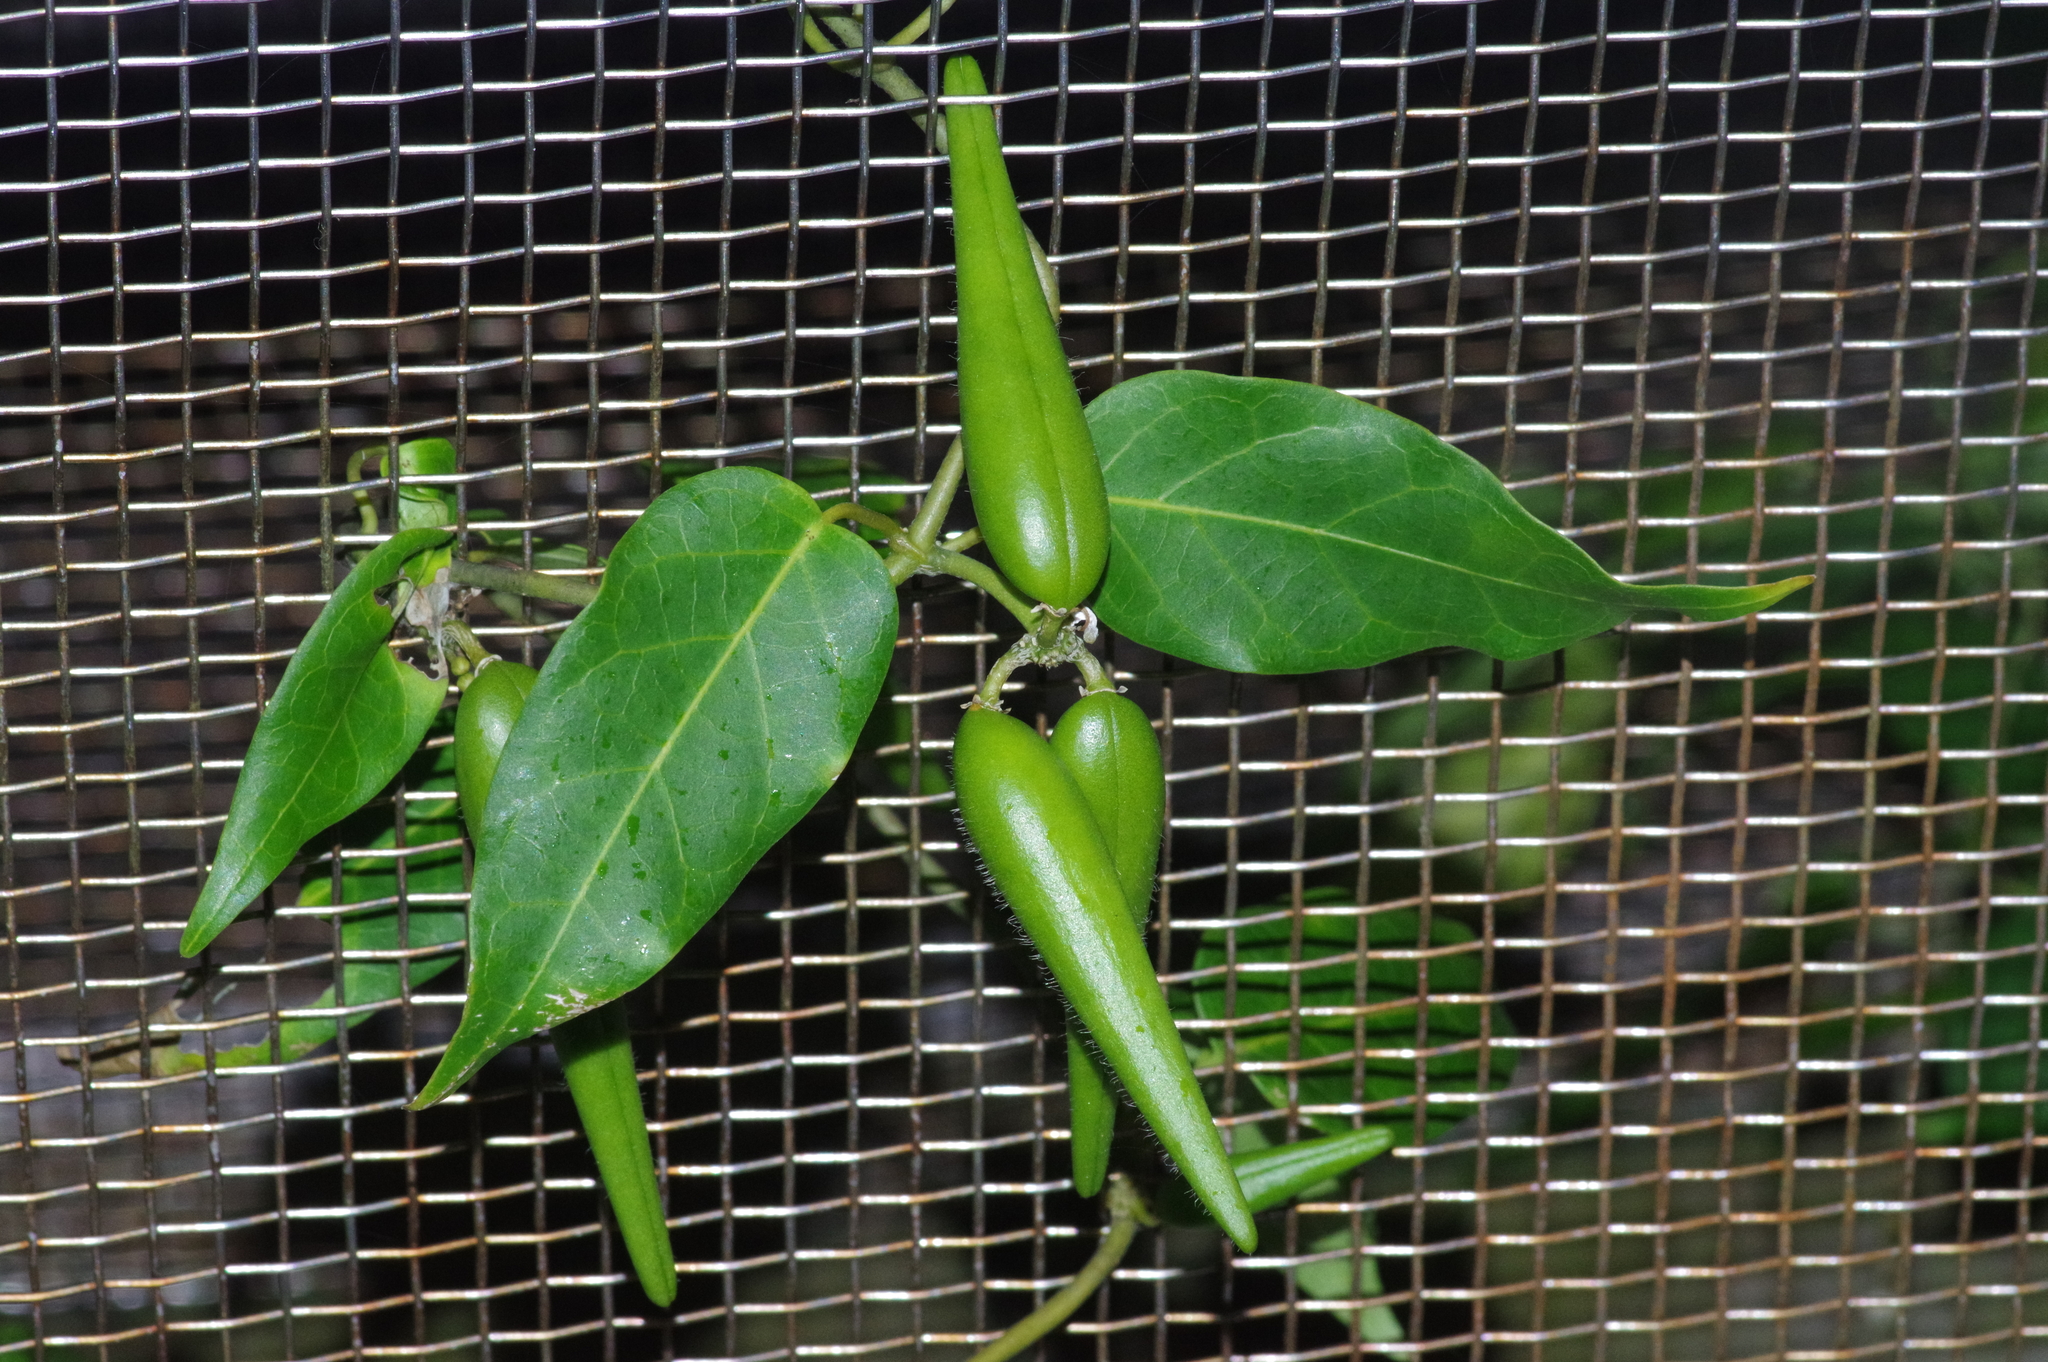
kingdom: Plantae
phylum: Tracheophyta
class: Magnoliopsida
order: Gentianales
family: Apocynaceae
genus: Marsdenia
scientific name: Marsdenia tinctoria
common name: Climbing-indigo
